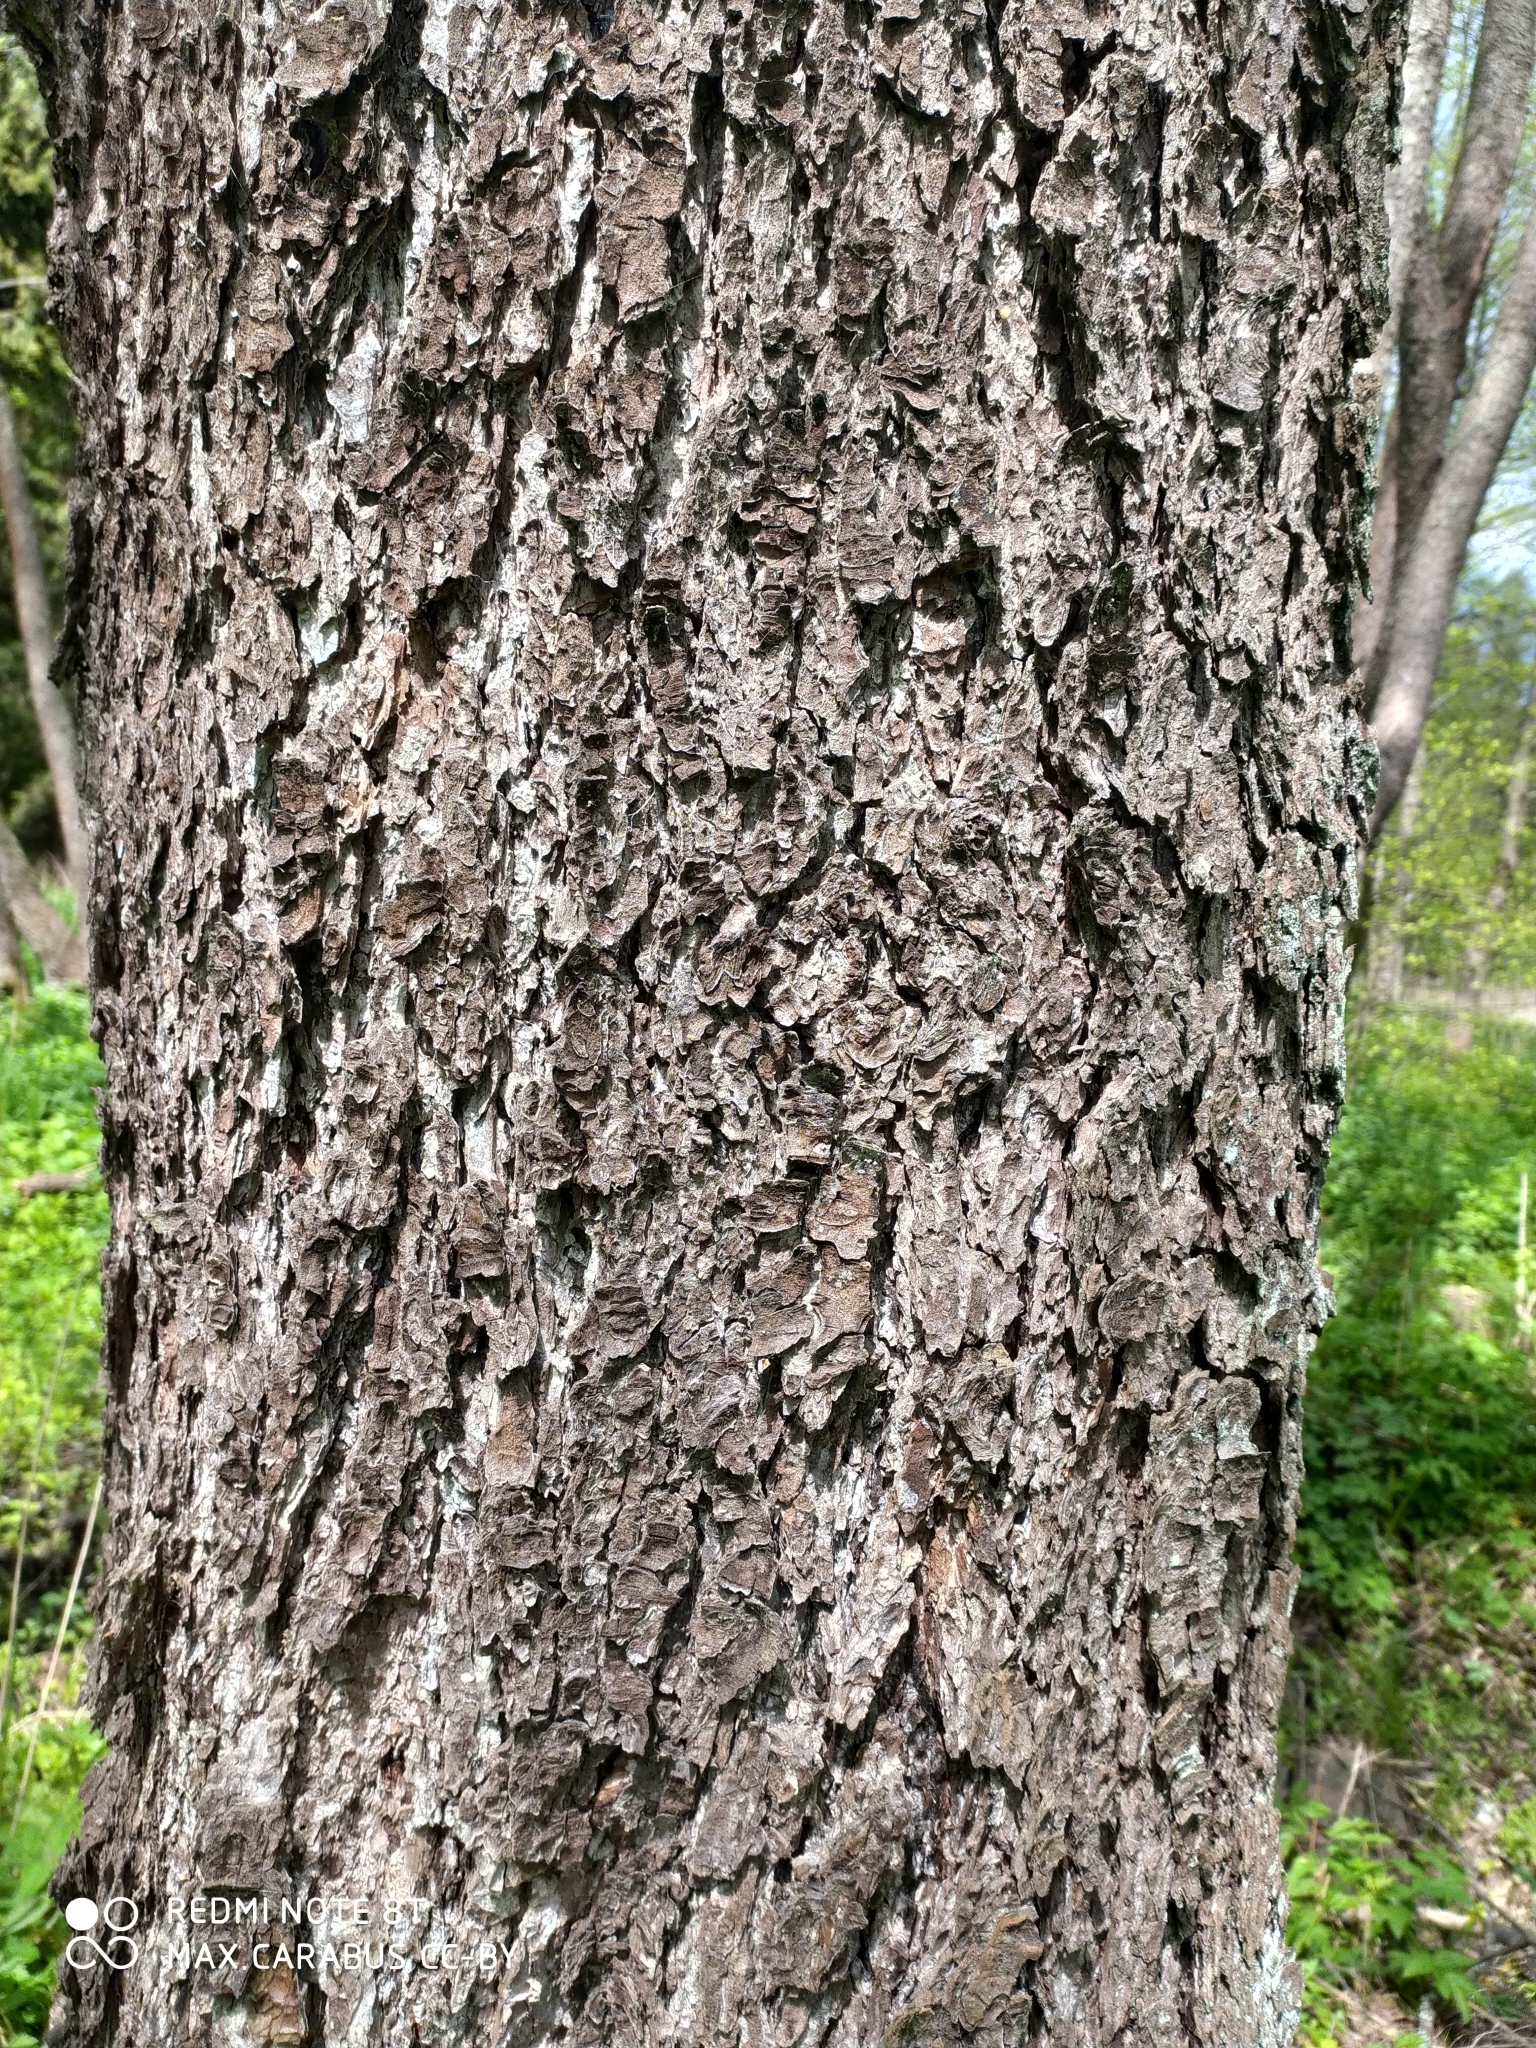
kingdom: Plantae
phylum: Tracheophyta
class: Magnoliopsida
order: Fagales
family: Betulaceae
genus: Alnus
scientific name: Alnus glutinosa
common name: Black alder
